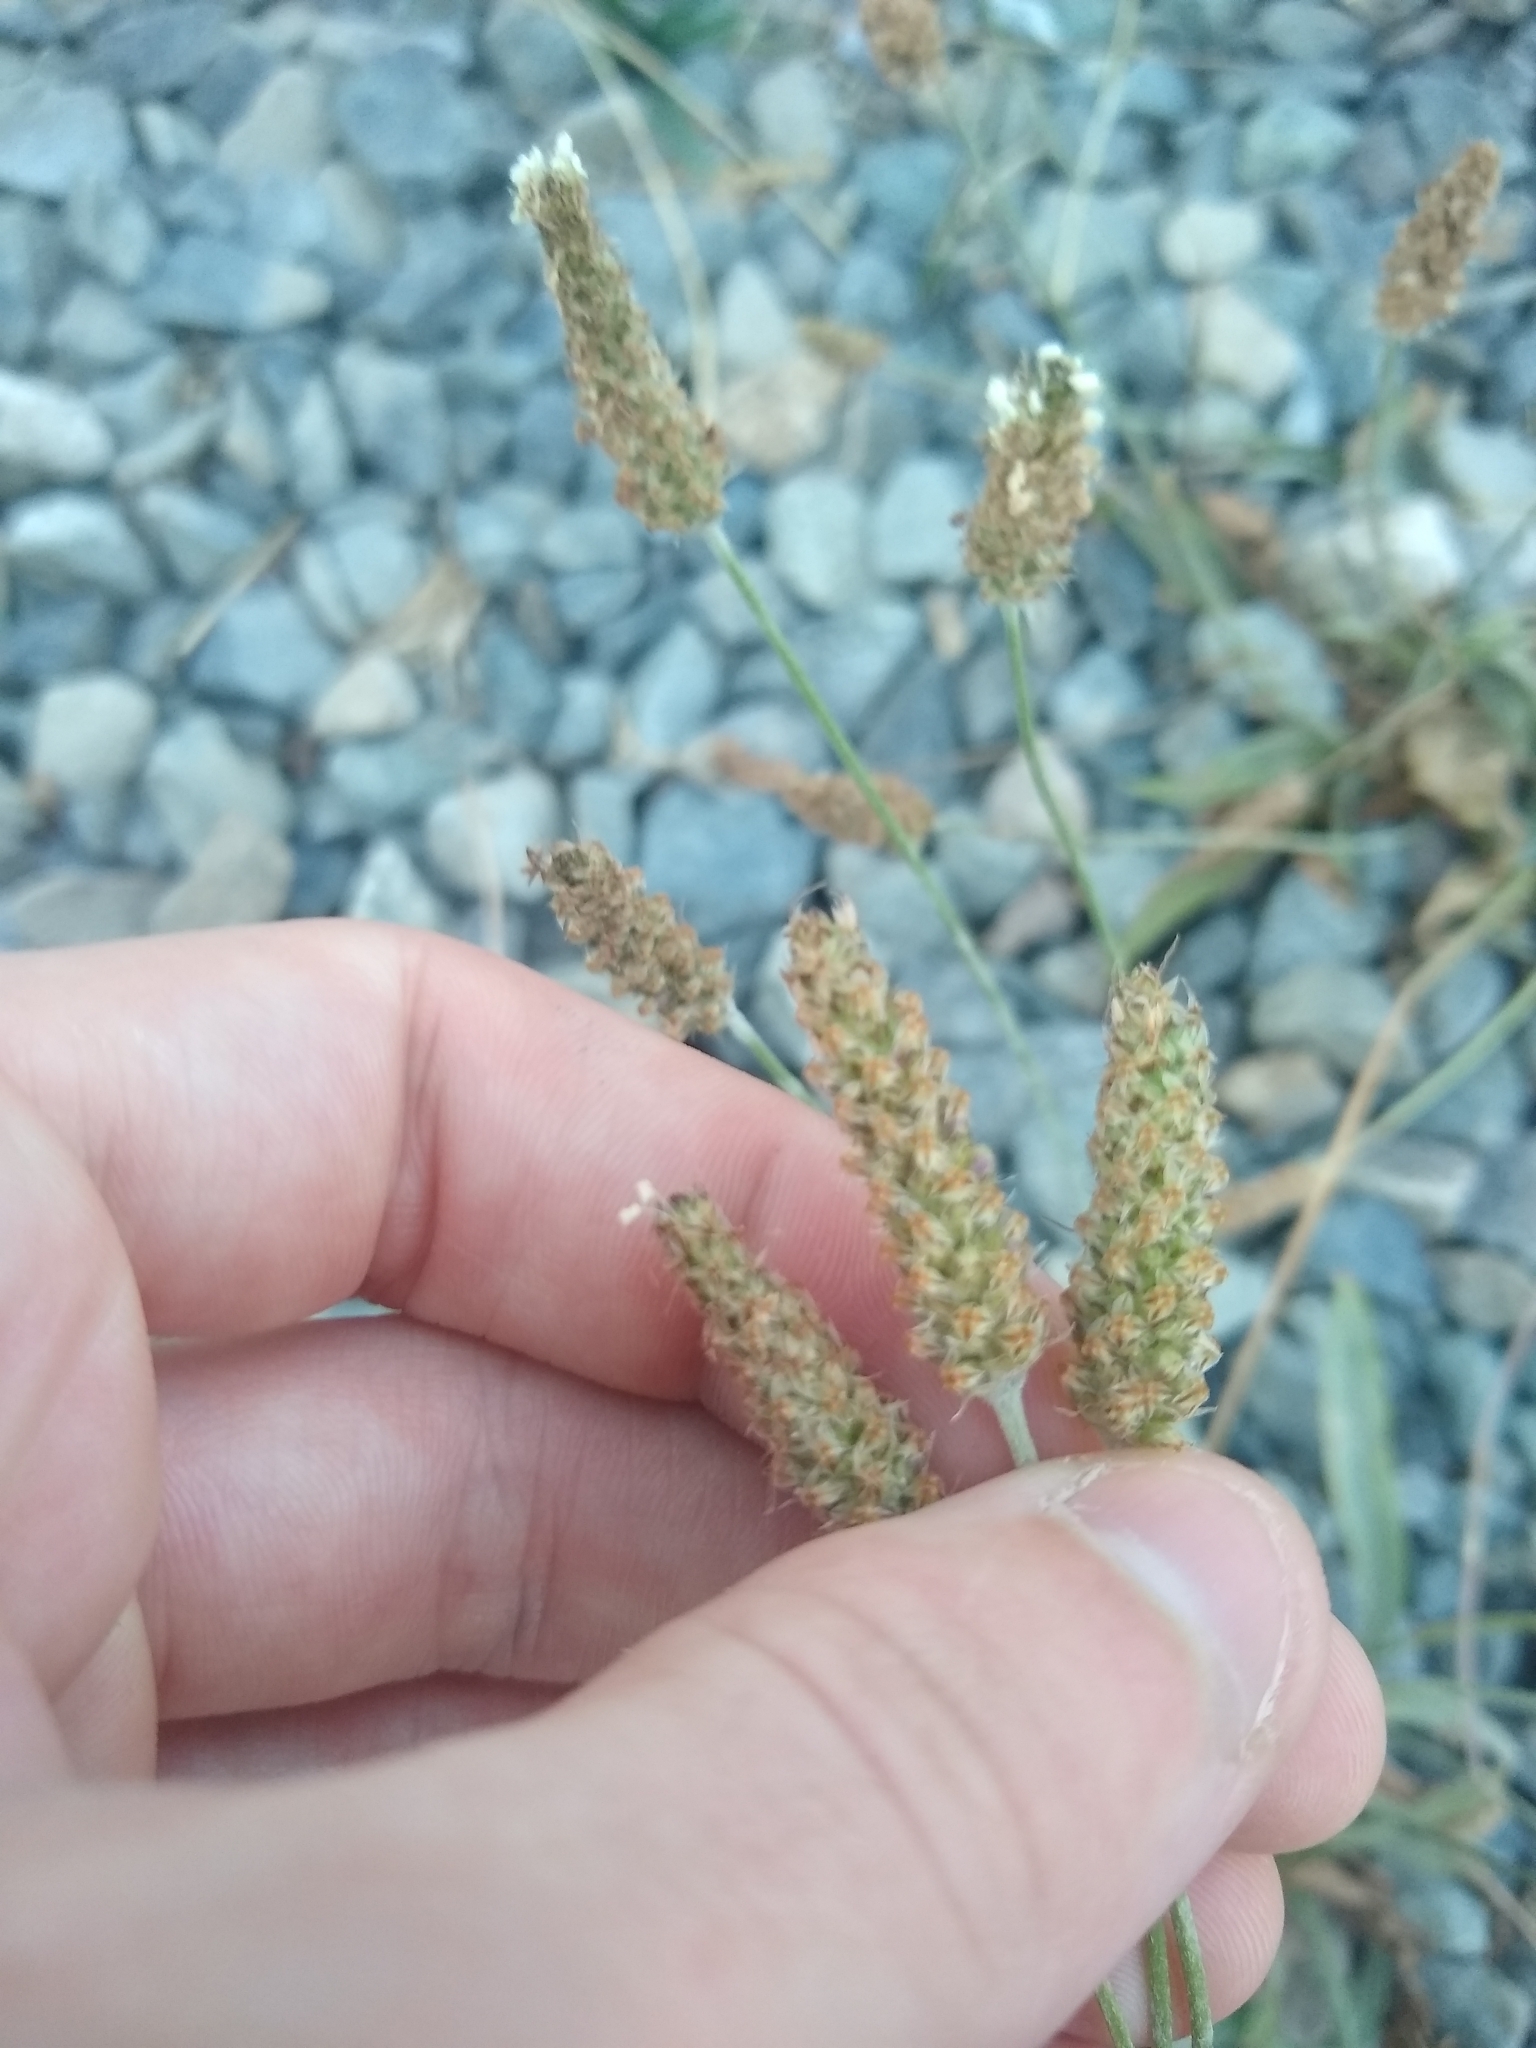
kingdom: Plantae
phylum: Tracheophyta
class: Magnoliopsida
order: Lamiales
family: Plantaginaceae
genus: Plantago
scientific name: Plantago lanceolata
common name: Ribwort plantain
